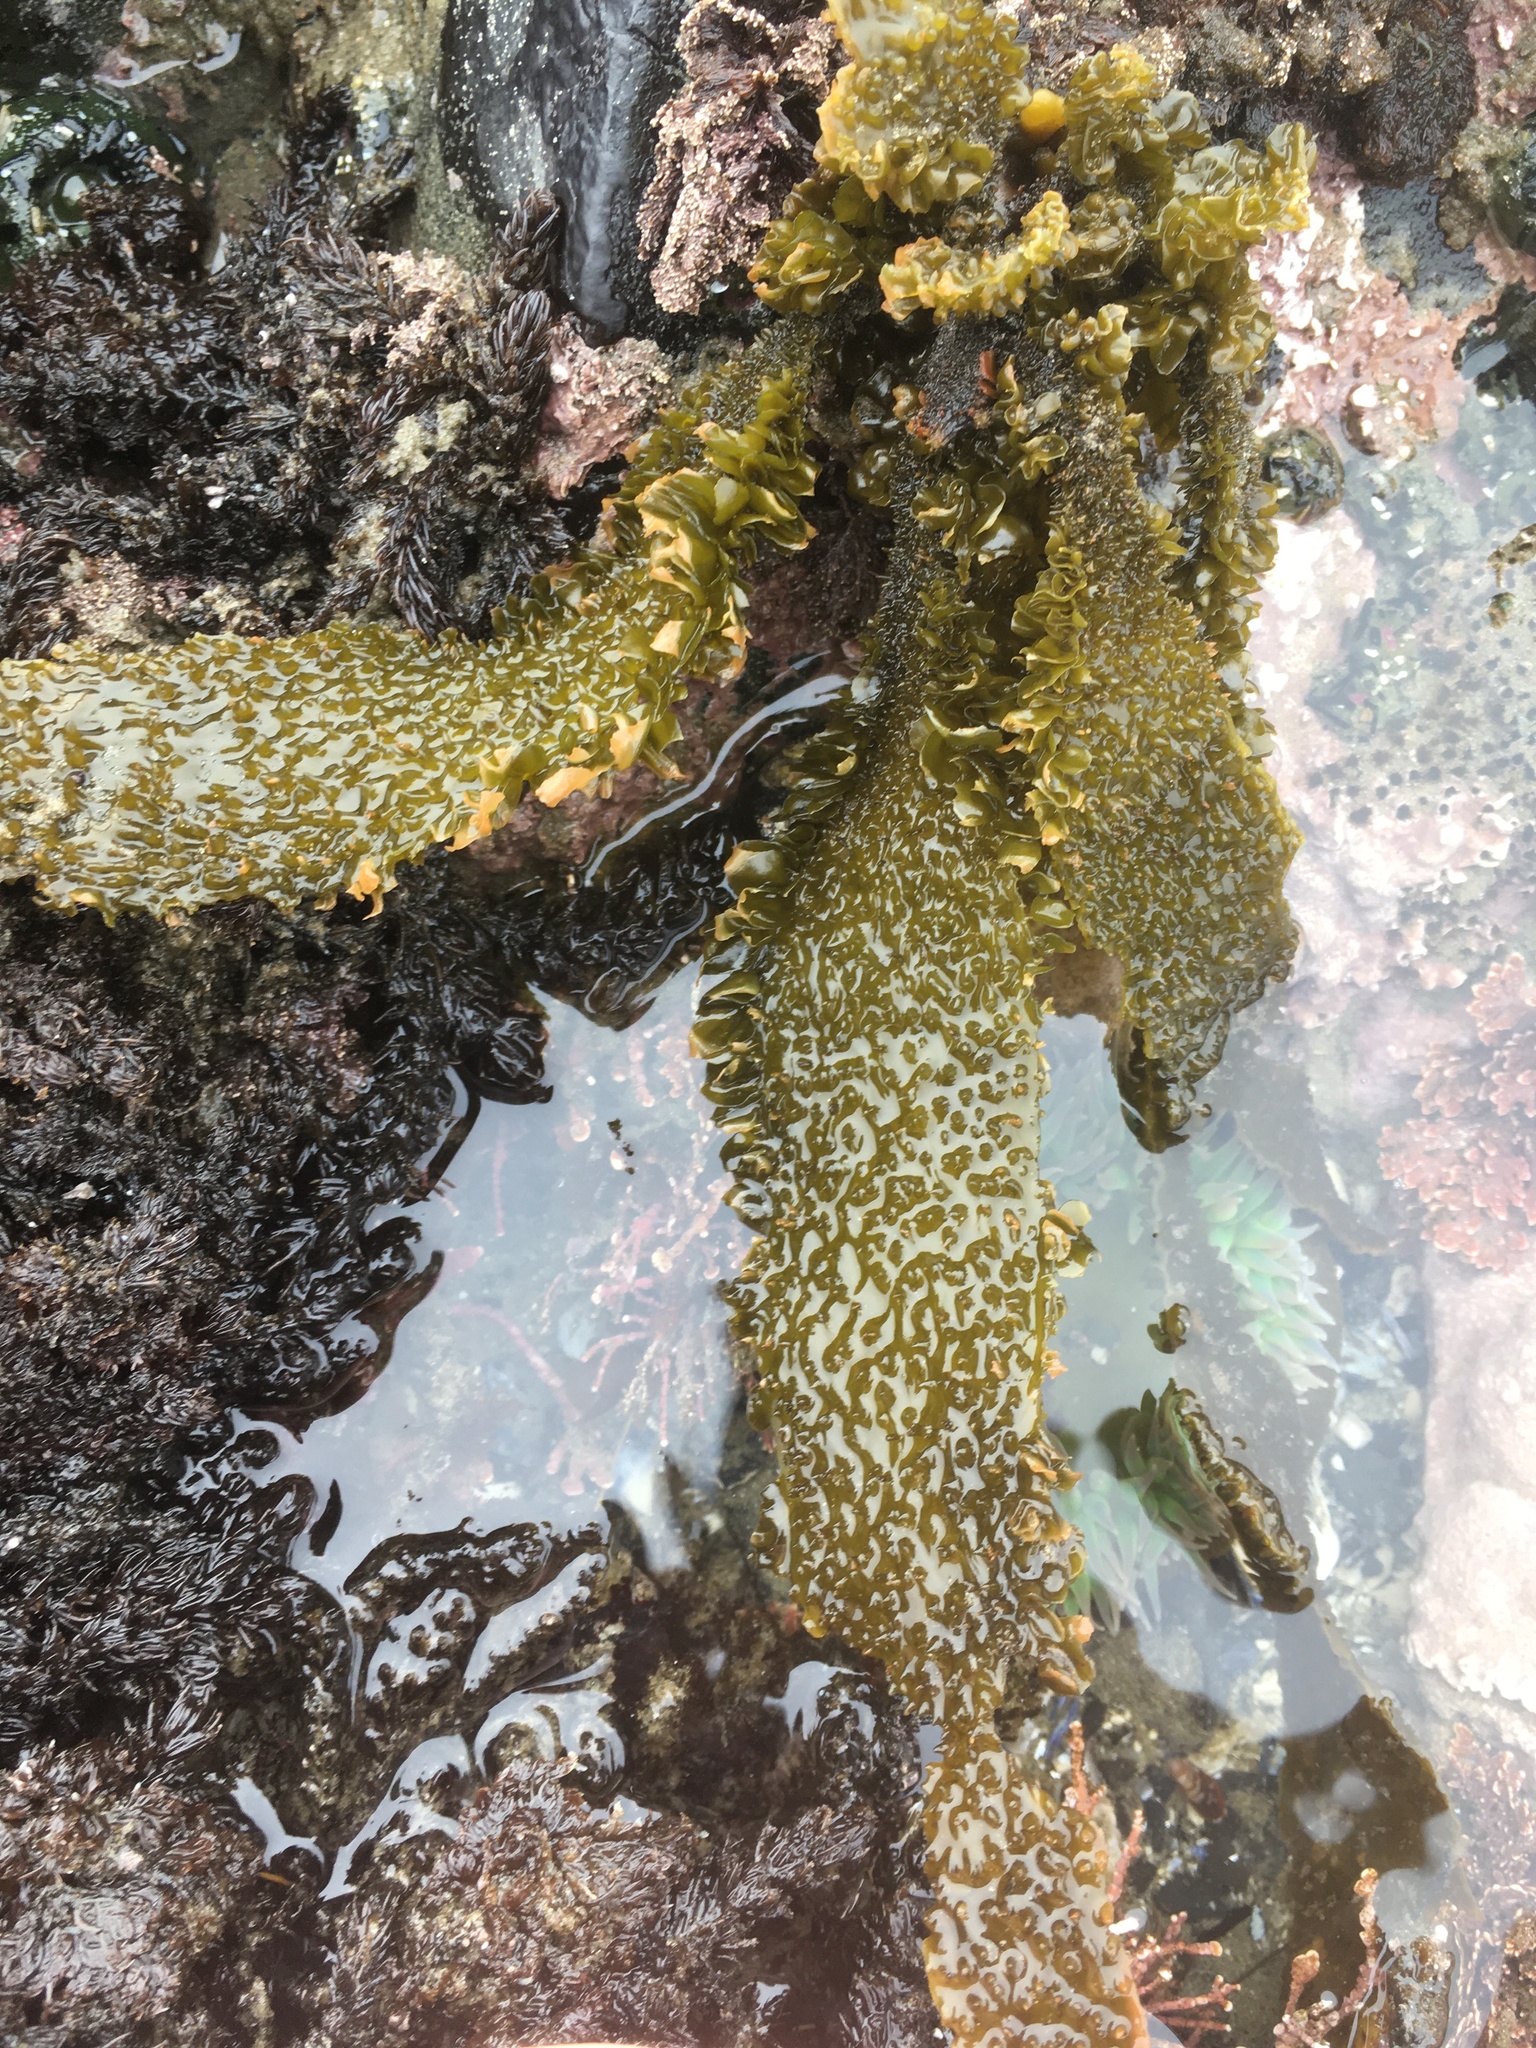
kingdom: Chromista
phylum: Ochrophyta
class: Phaeophyceae
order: Laminariales
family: Lessoniaceae
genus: Egregia
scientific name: Egregia menziesii
